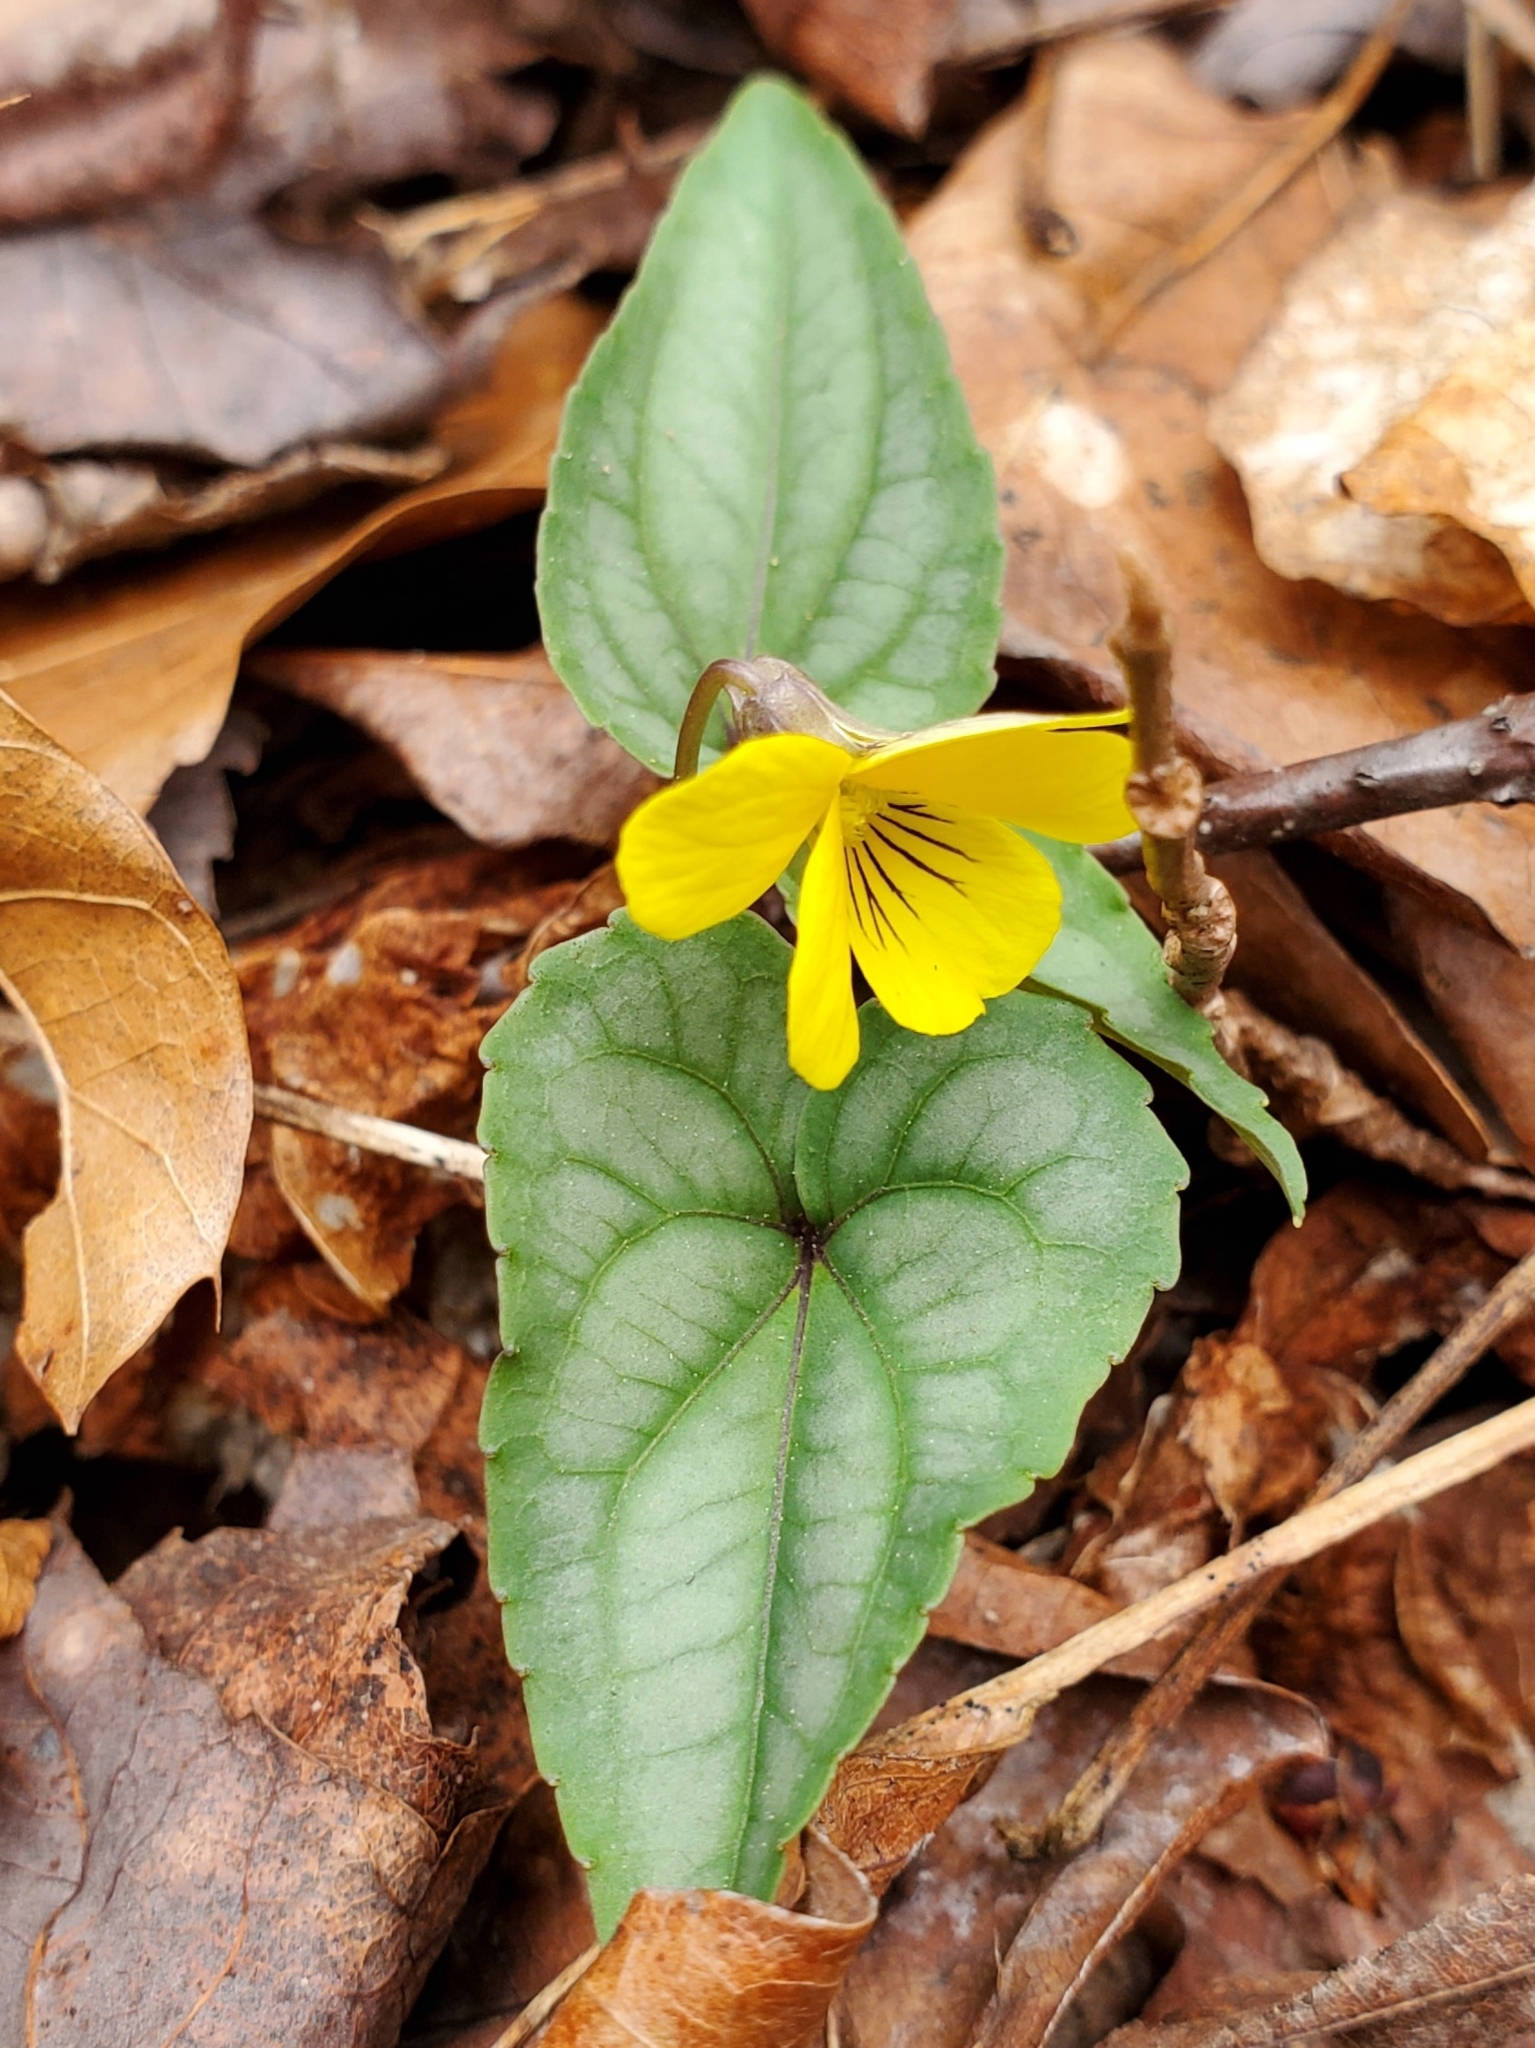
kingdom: Plantae
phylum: Tracheophyta
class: Magnoliopsida
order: Malpighiales
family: Violaceae
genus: Viola
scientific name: Viola hastata
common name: Spear-leaf violet
